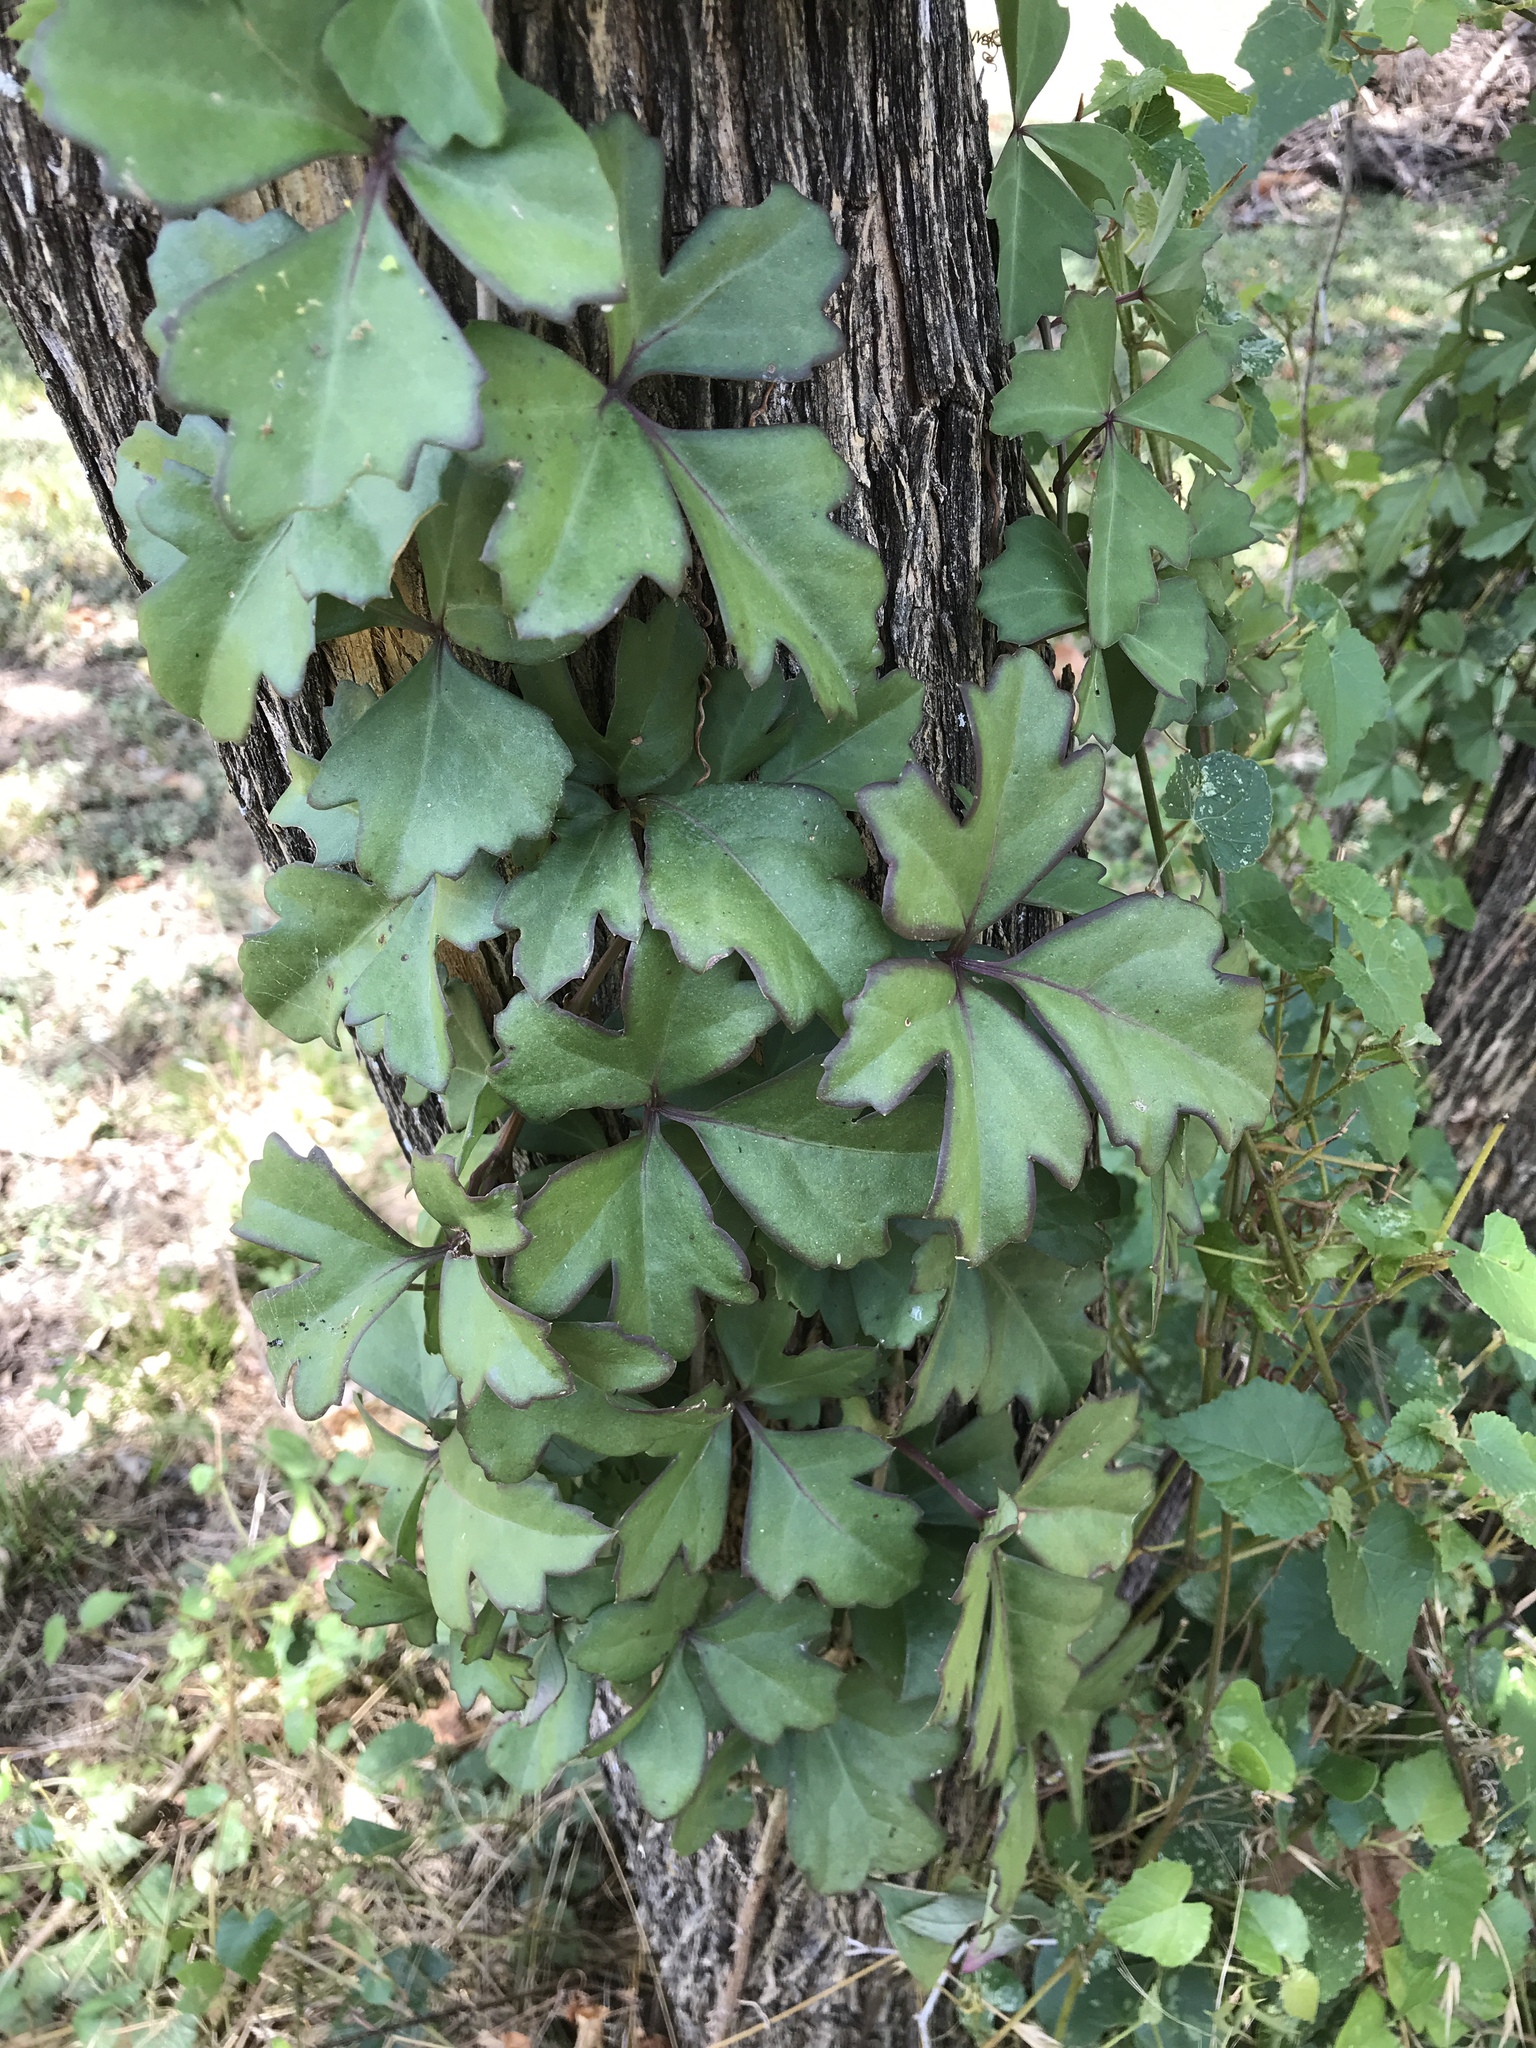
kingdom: Plantae
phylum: Tracheophyta
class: Magnoliopsida
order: Vitales
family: Vitaceae
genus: Cissus
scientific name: Cissus trifoliata
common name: Vine-sorrel
